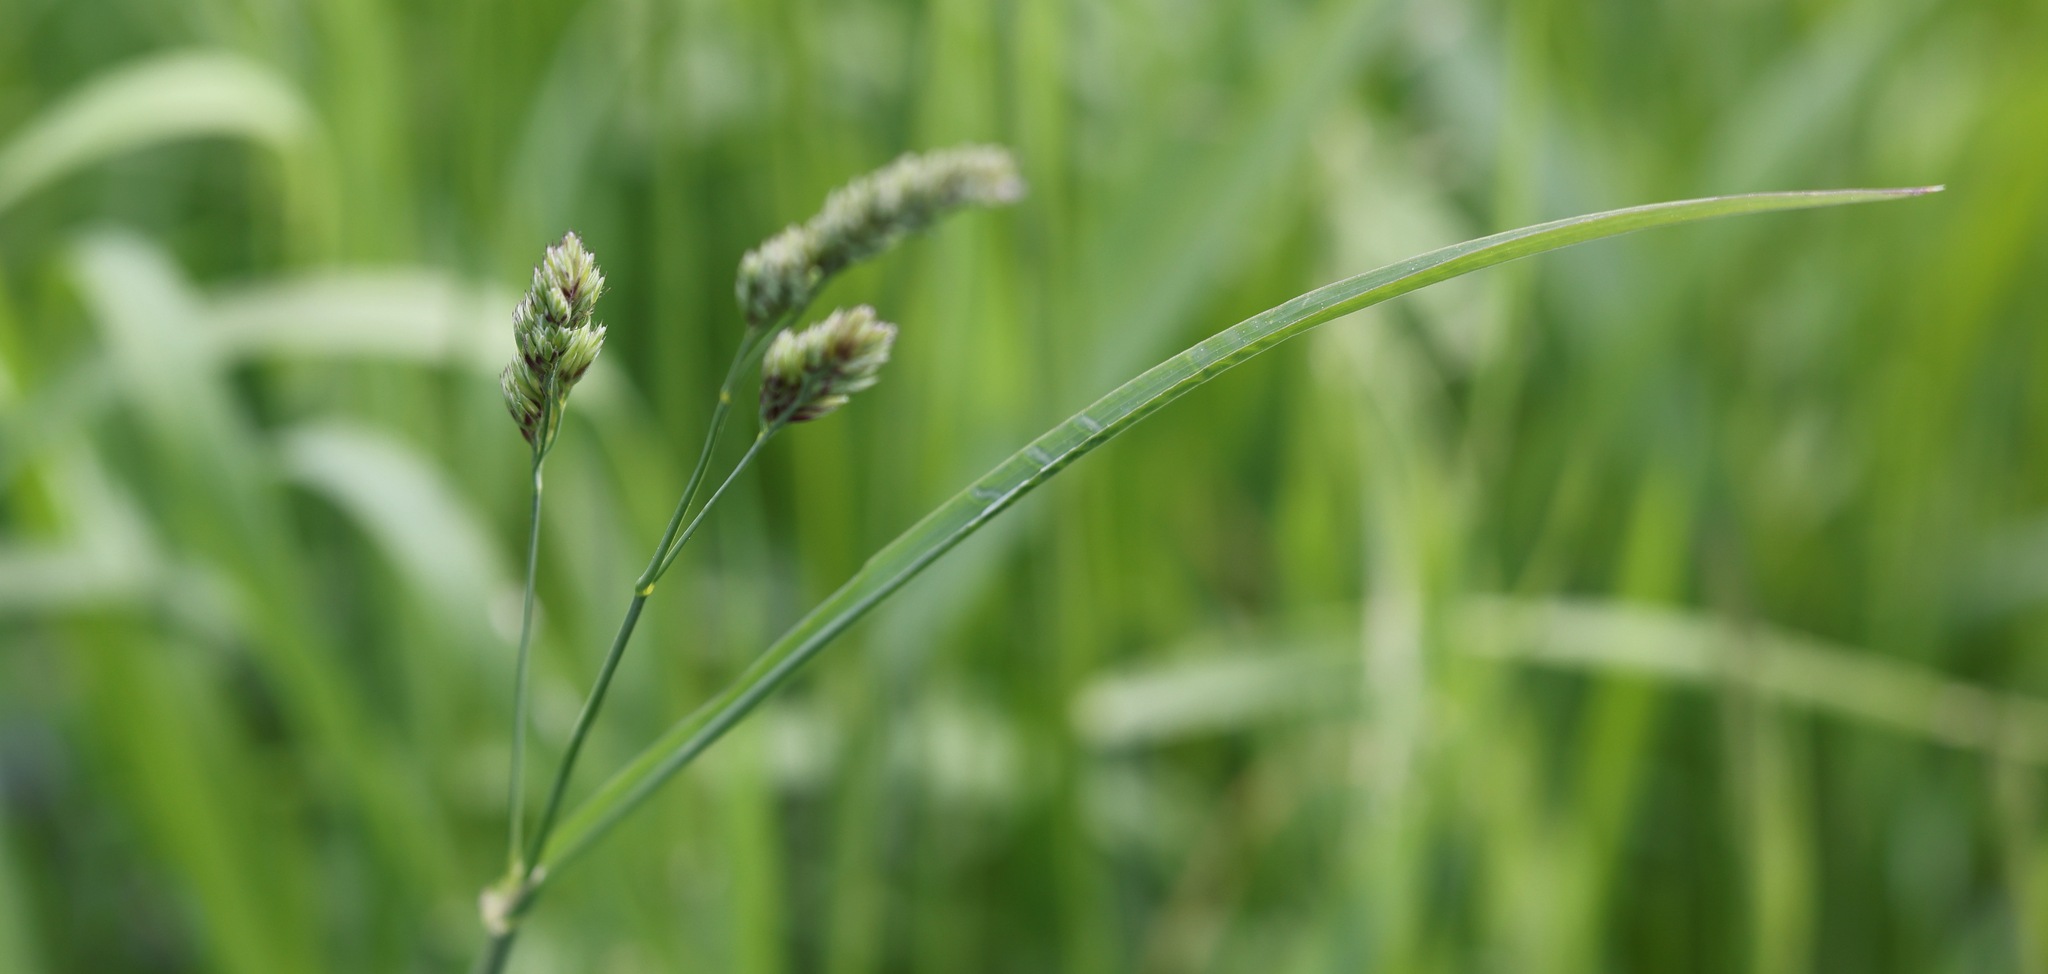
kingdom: Plantae
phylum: Tracheophyta
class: Liliopsida
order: Poales
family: Poaceae
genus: Dactylis
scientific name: Dactylis glomerata
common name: Orchardgrass
